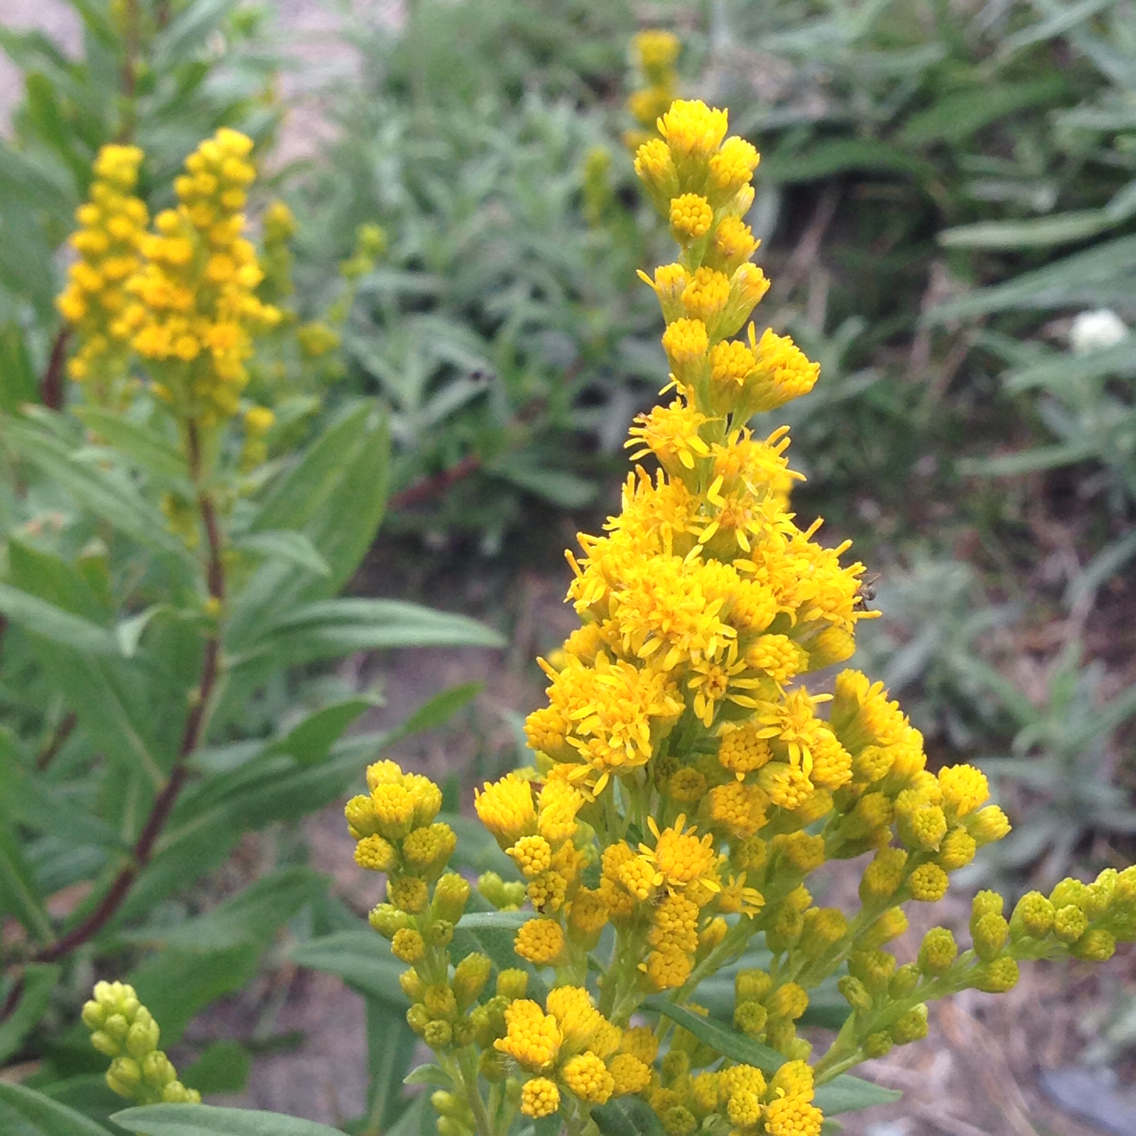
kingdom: Plantae
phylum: Tracheophyta
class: Magnoliopsida
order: Asterales
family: Asteraceae
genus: Solidago
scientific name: Solidago lepida
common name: Western canada goldenrod
